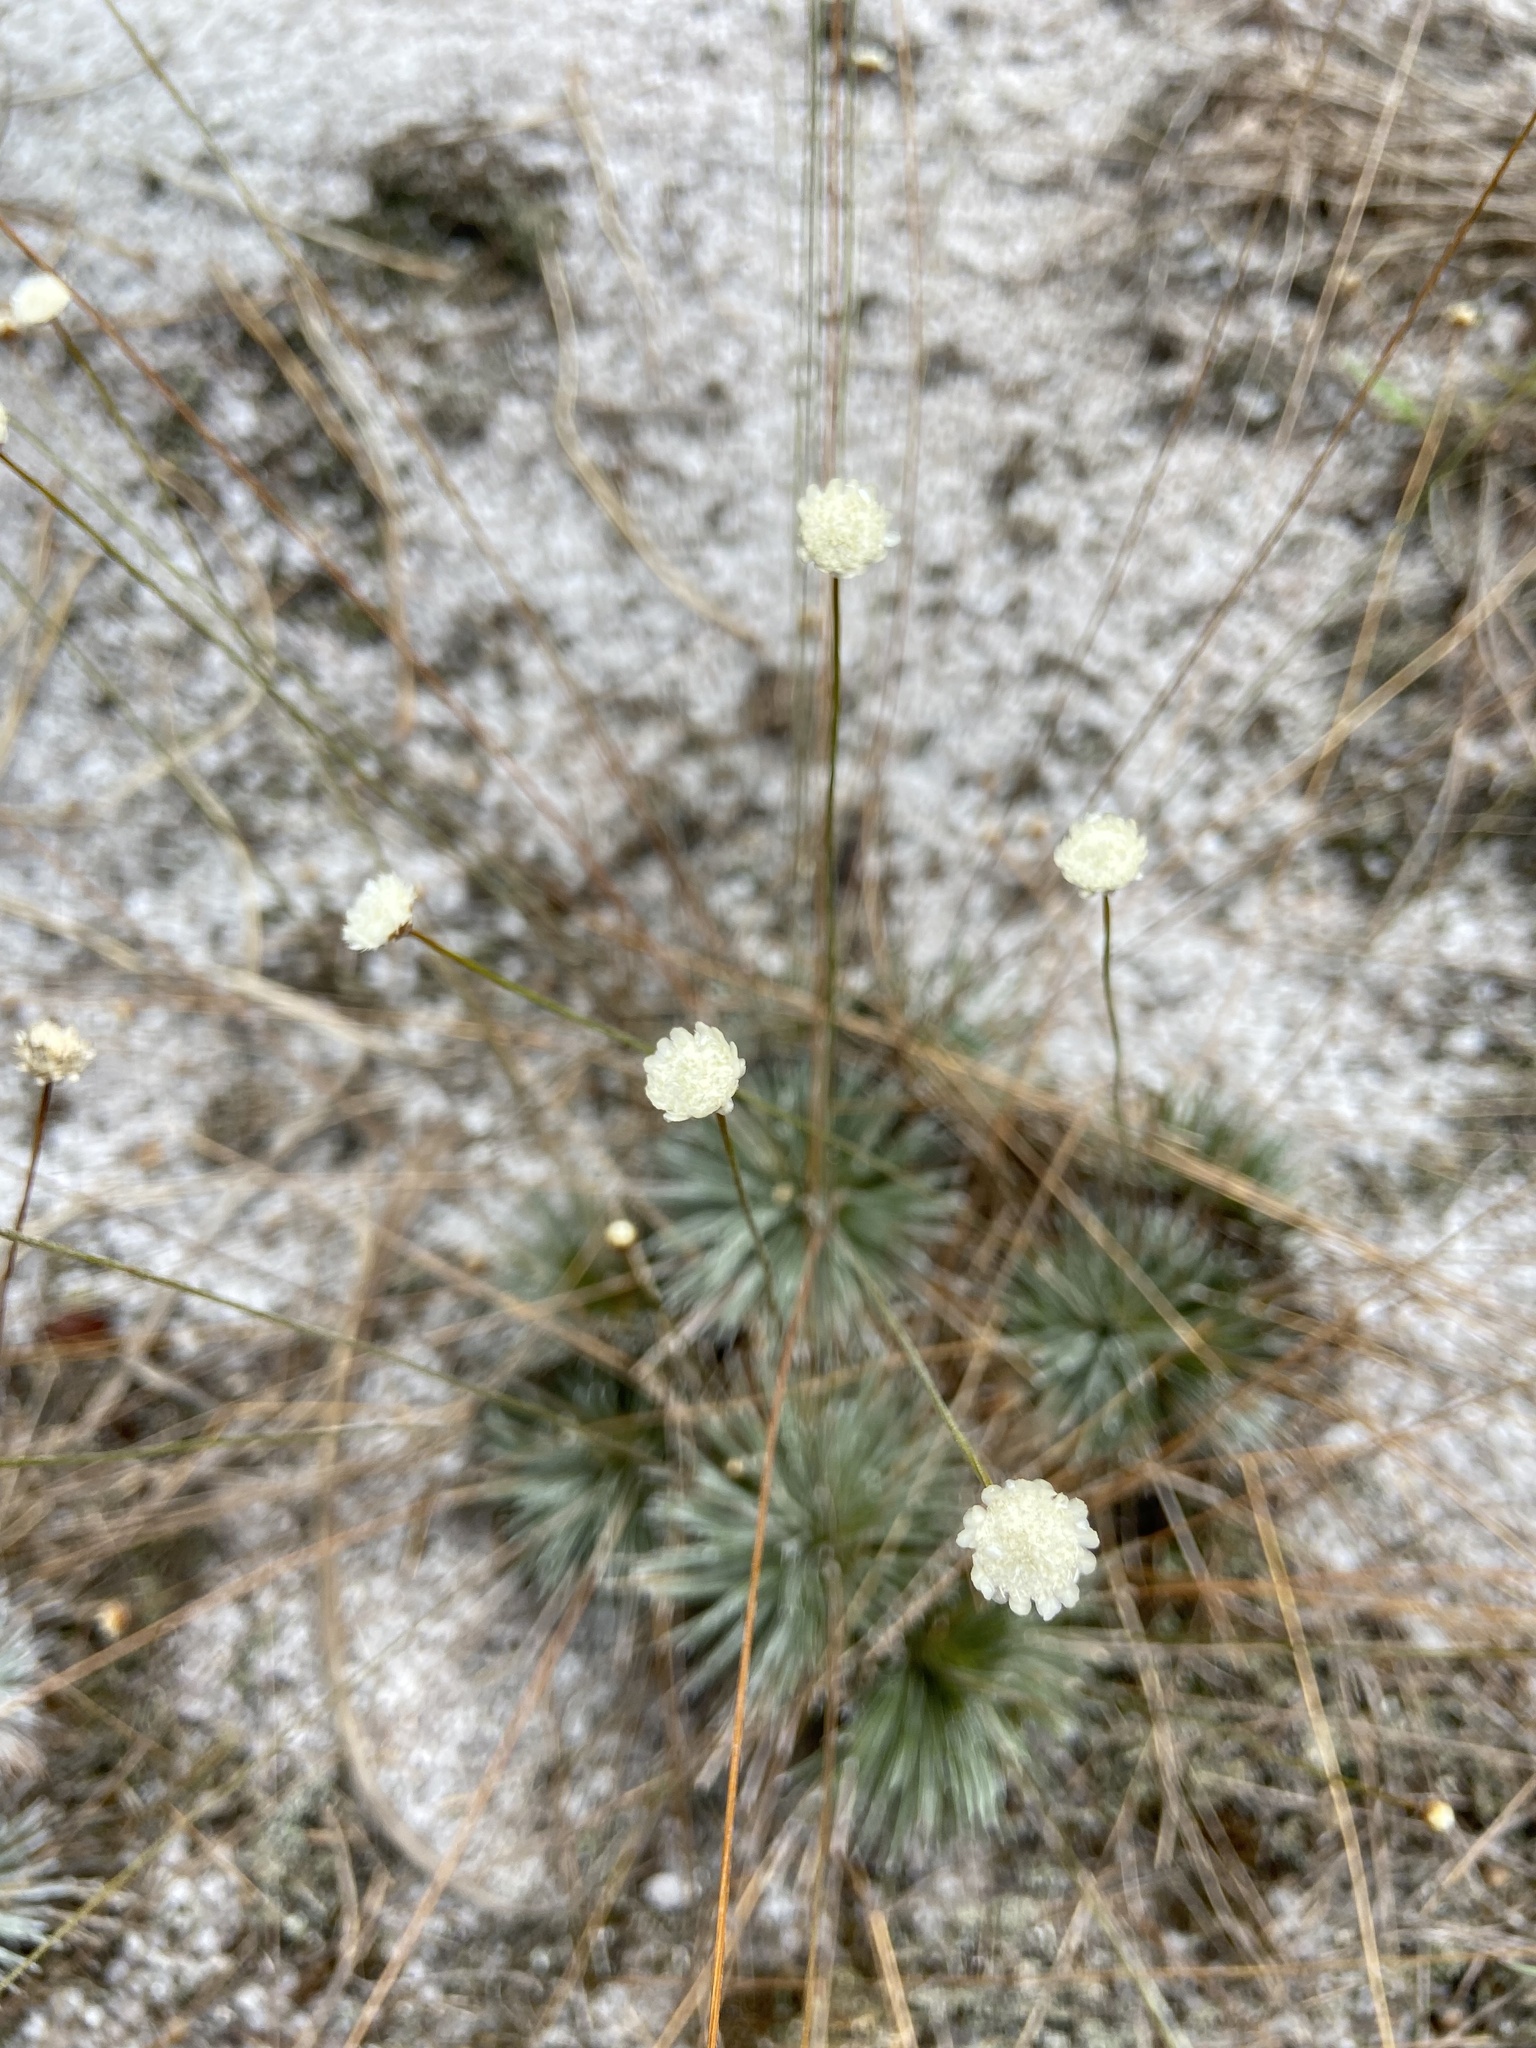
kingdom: Plantae
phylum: Tracheophyta
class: Liliopsida
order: Poales
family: Eriocaulaceae
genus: Comanthera
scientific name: Comanthera caespitosa
